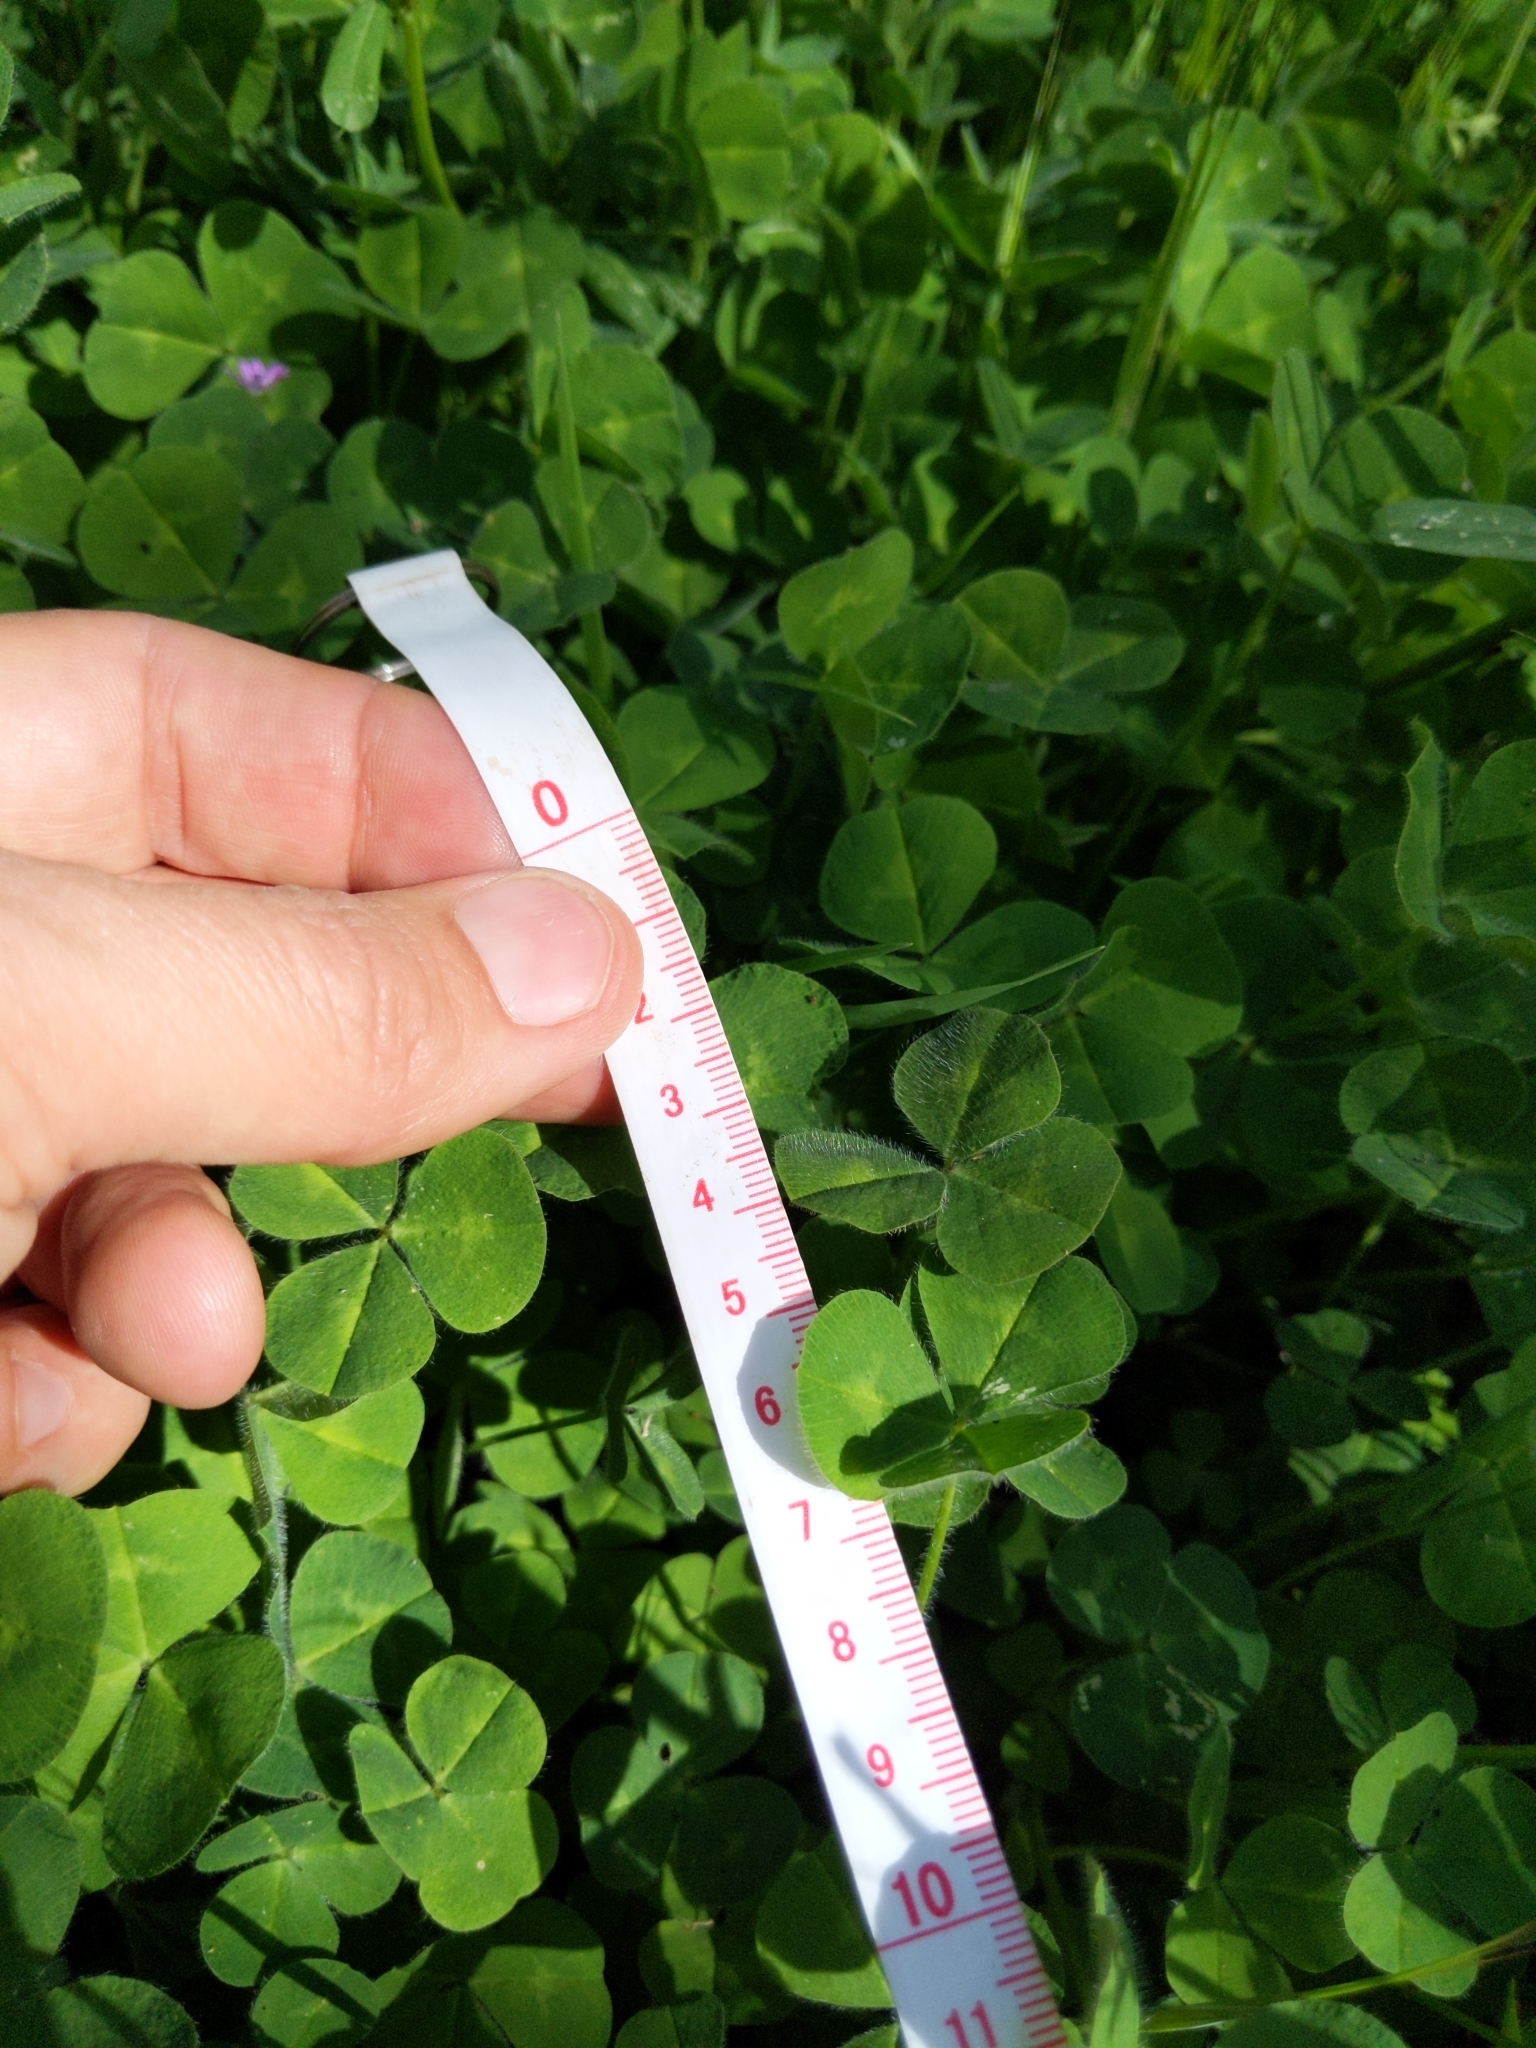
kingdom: Plantae
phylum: Tracheophyta
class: Magnoliopsida
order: Fabales
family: Fabaceae
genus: Trifolium
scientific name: Trifolium subterraneum
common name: Subterranean clover
